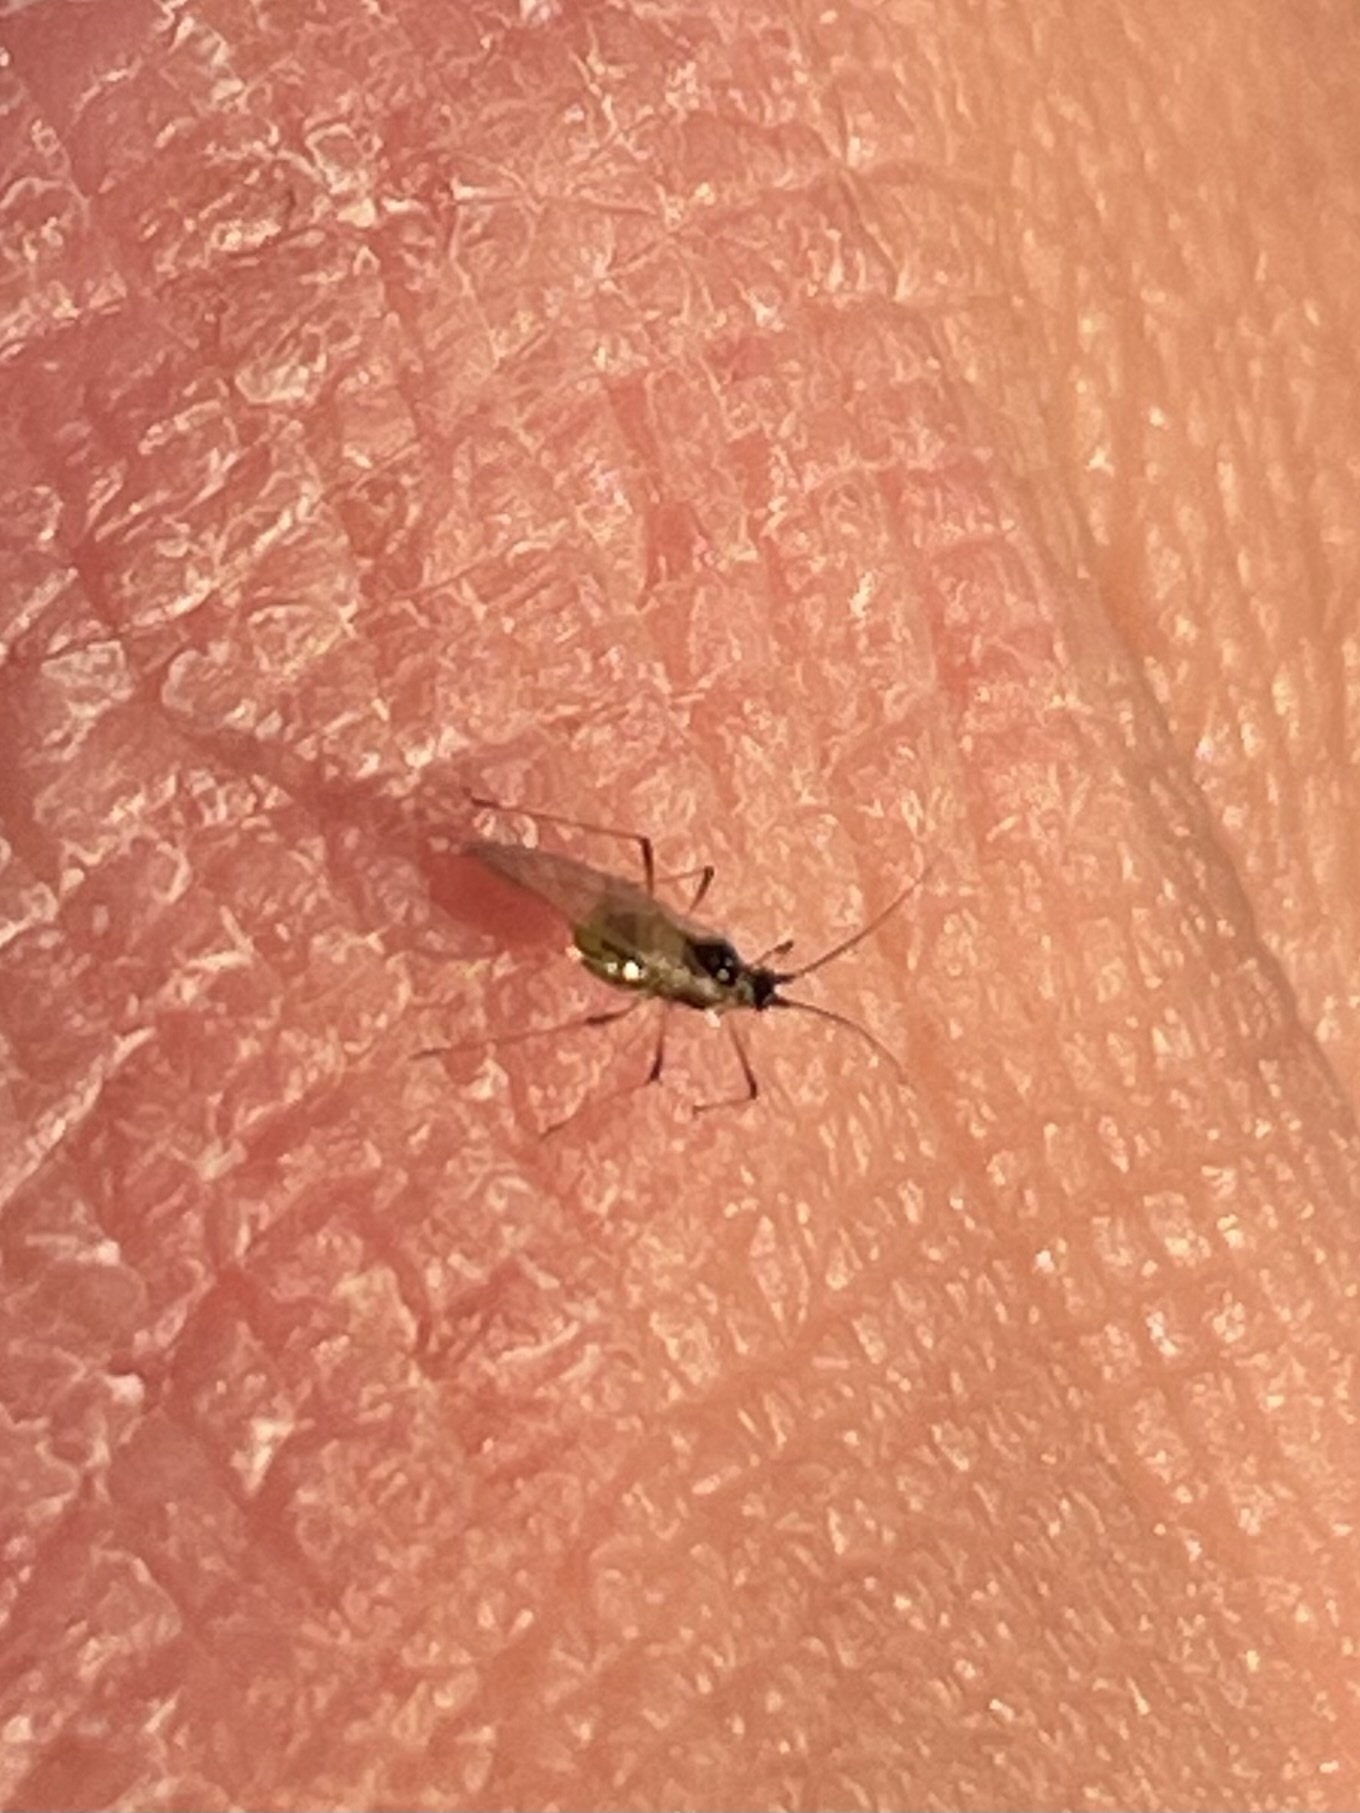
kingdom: Animalia
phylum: Arthropoda
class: Insecta
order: Hemiptera
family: Aphididae
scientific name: Aphididae
